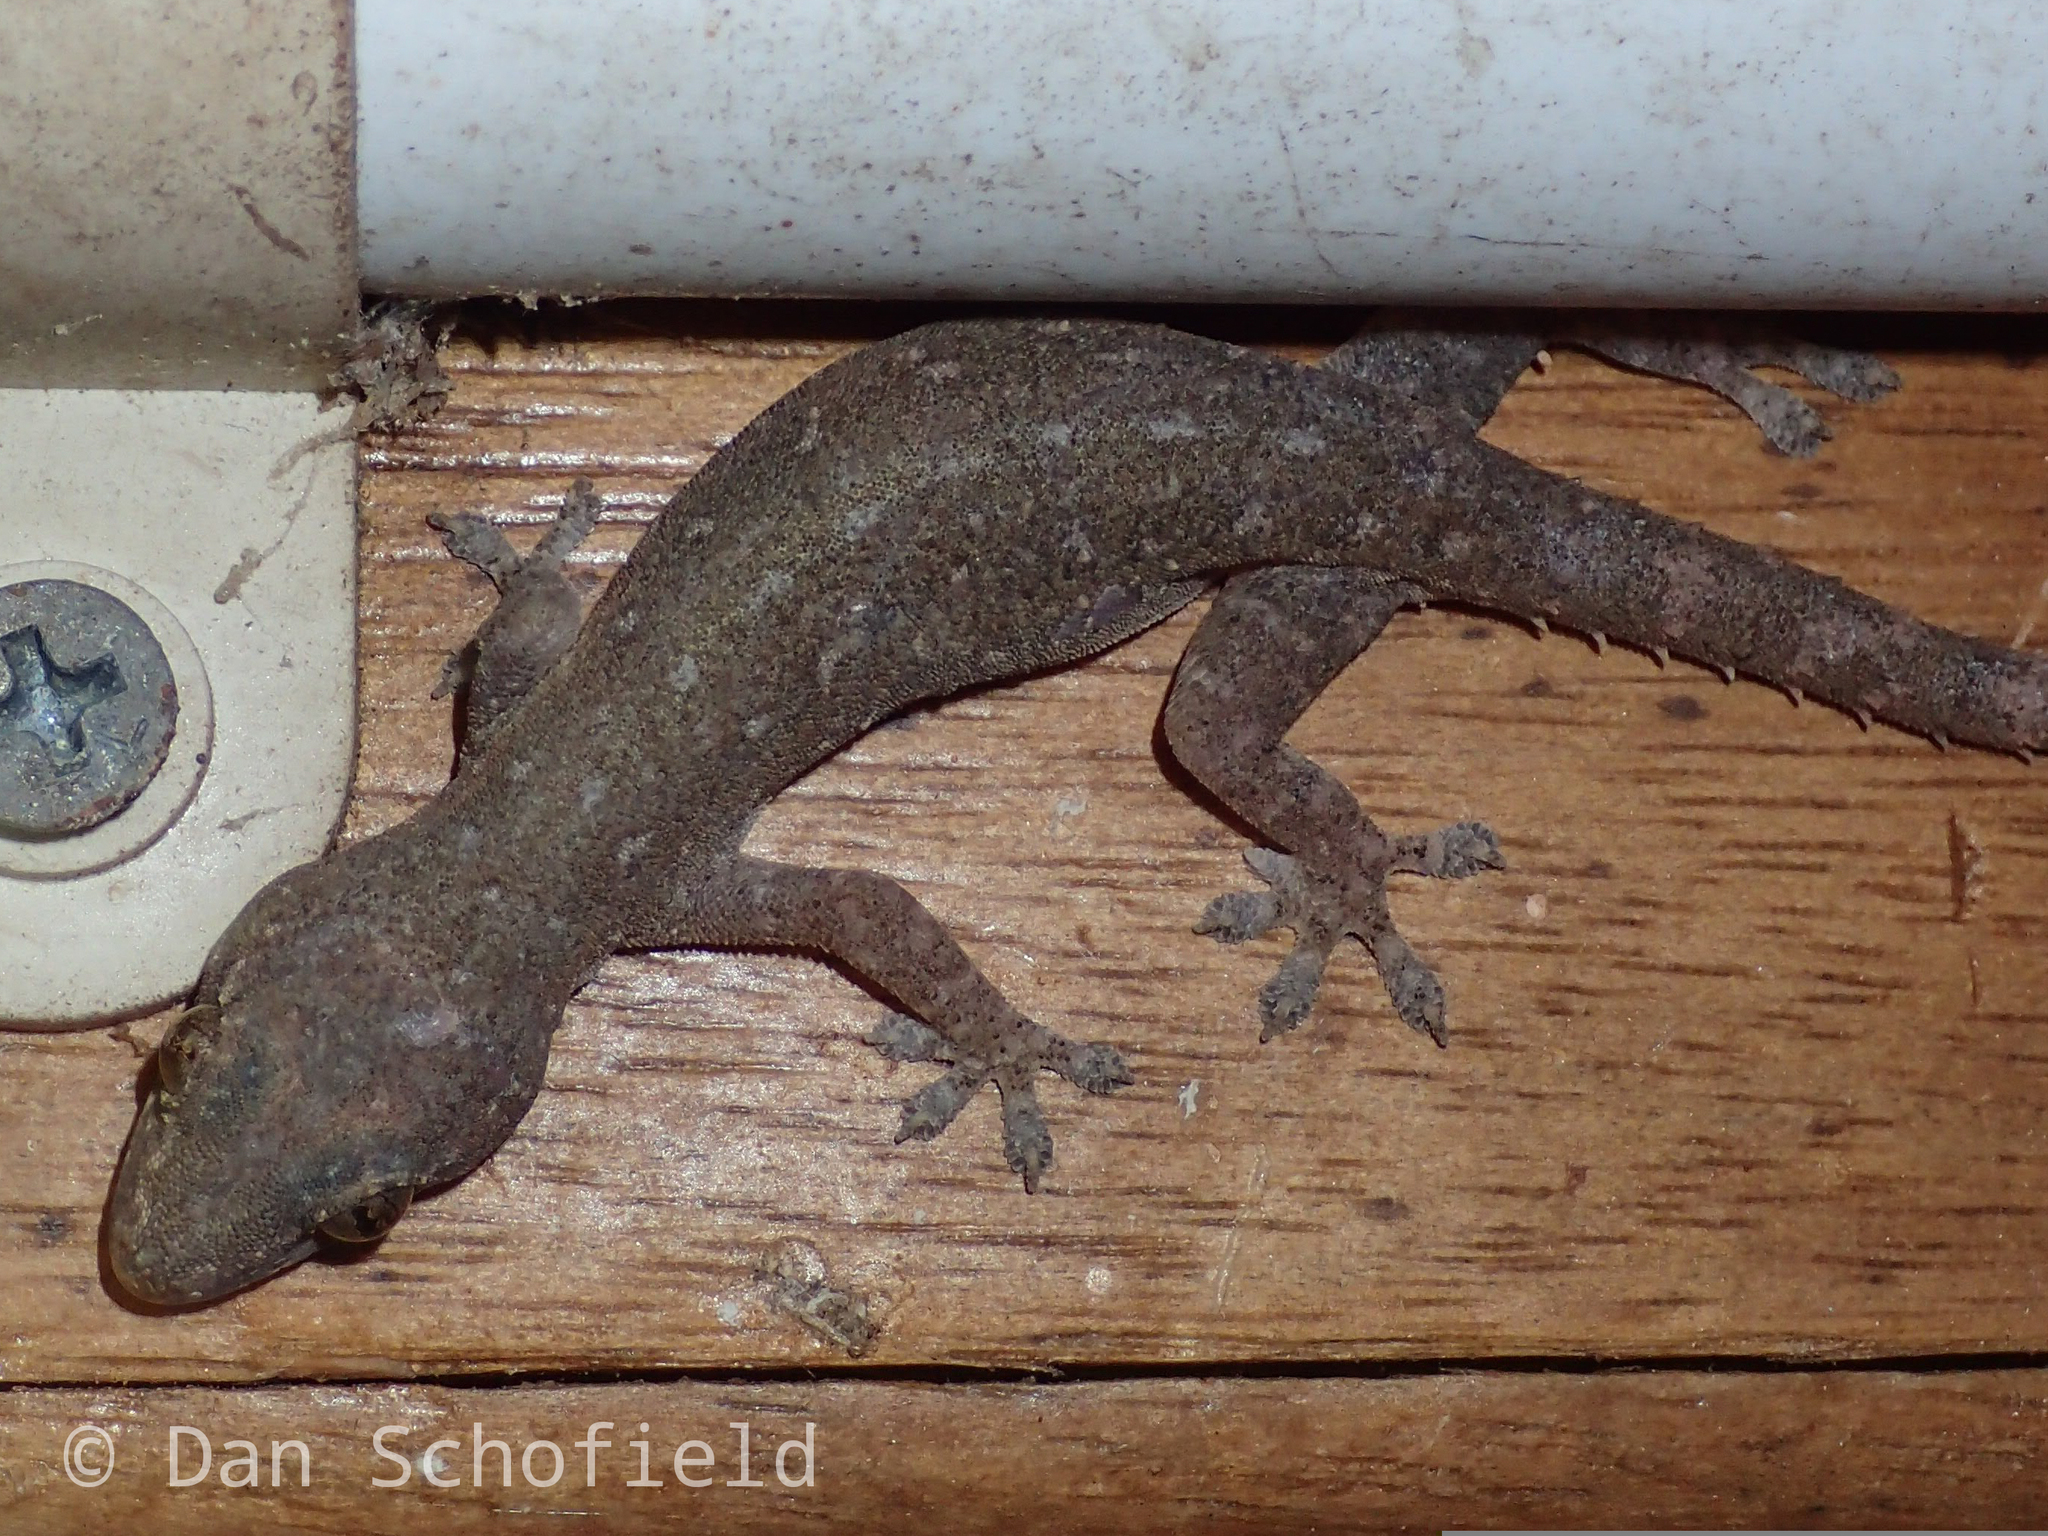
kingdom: Animalia
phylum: Chordata
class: Squamata
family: Gekkonidae
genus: Hemidactylus
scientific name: Hemidactylus frenatus
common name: Common house gecko
